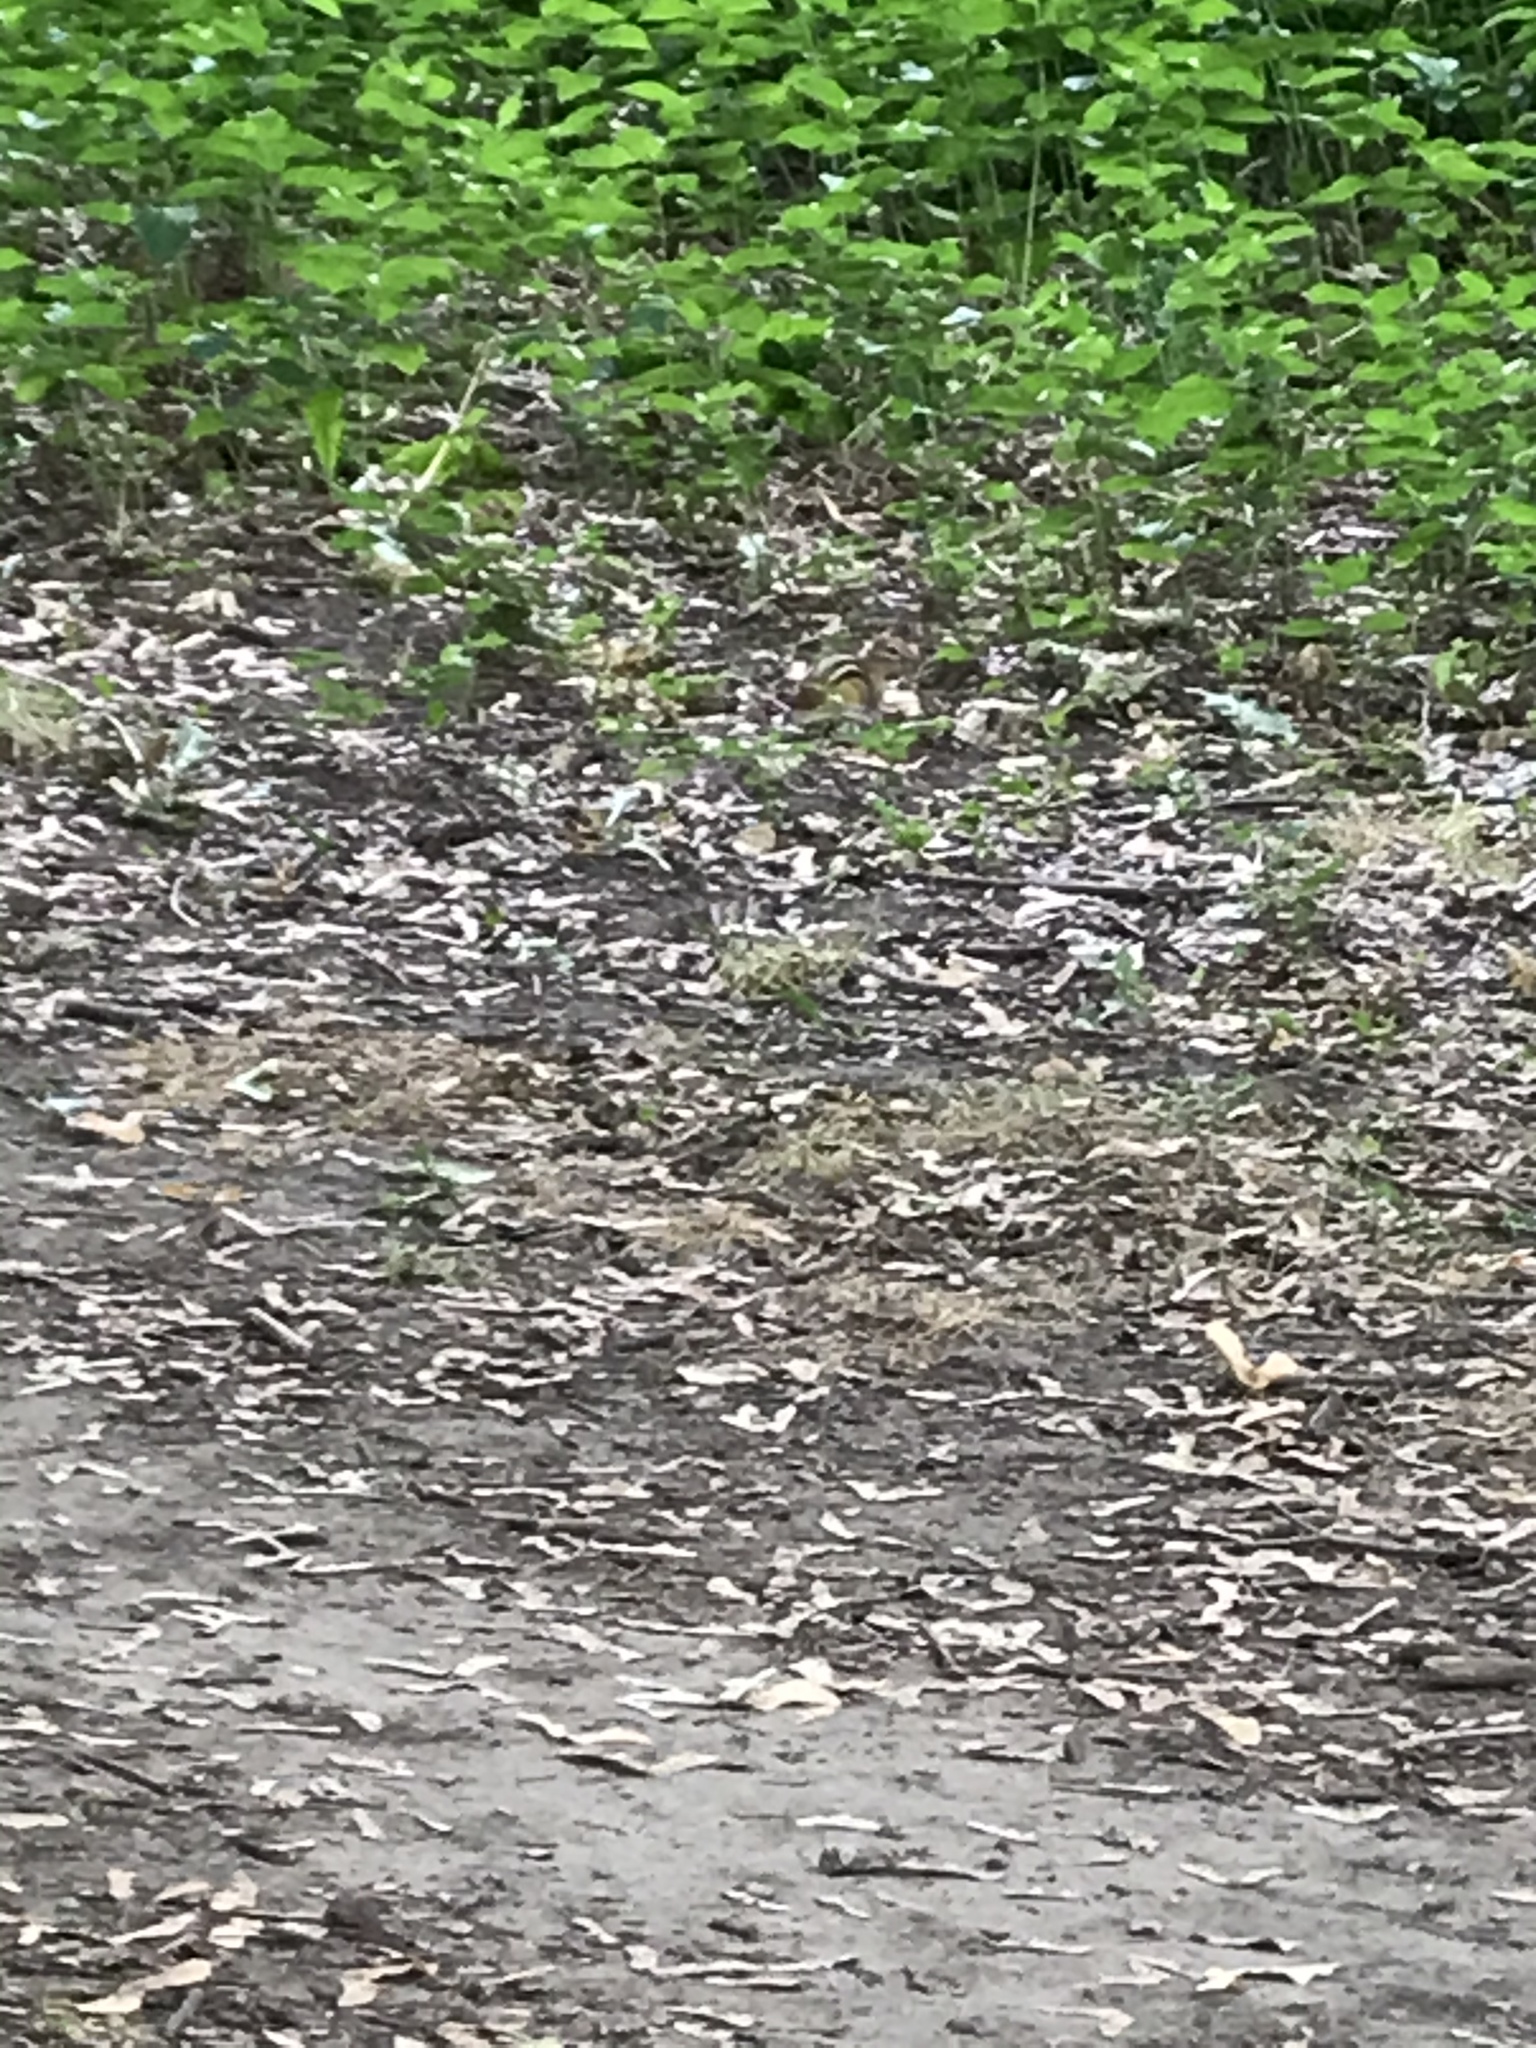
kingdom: Animalia
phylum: Chordata
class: Mammalia
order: Rodentia
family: Sciuridae
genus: Tamias
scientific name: Tamias striatus
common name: Eastern chipmunk
